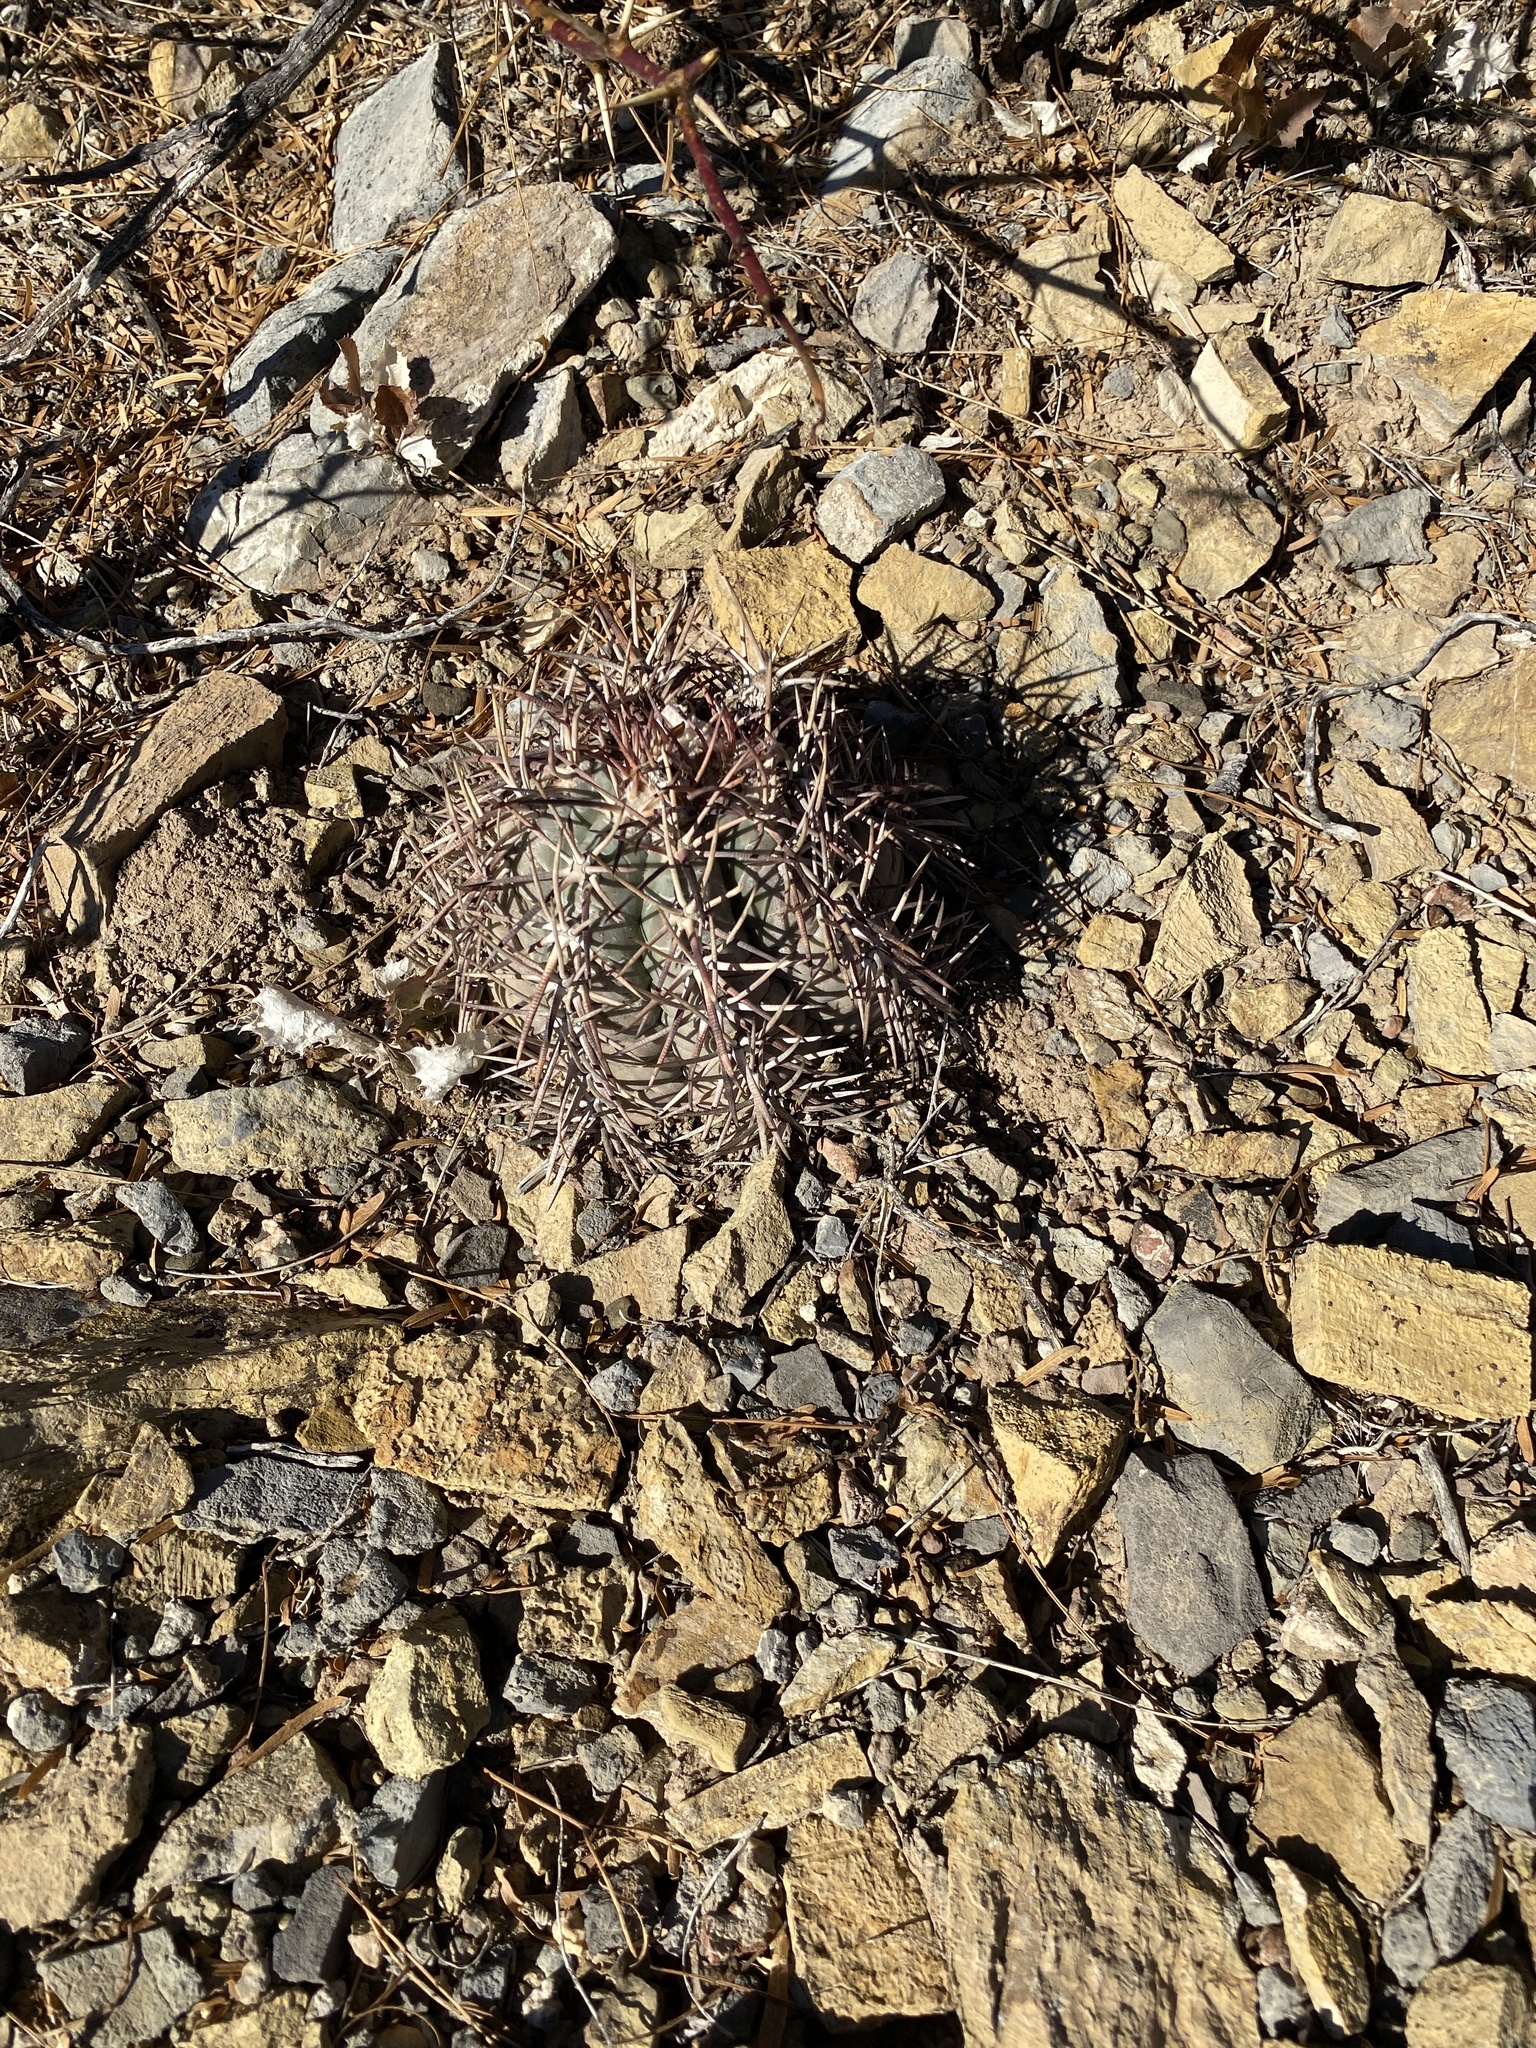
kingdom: Plantae
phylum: Tracheophyta
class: Magnoliopsida
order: Caryophyllales
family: Cactaceae
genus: Echinocactus
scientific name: Echinocactus horizonthalonius
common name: Devilshead
